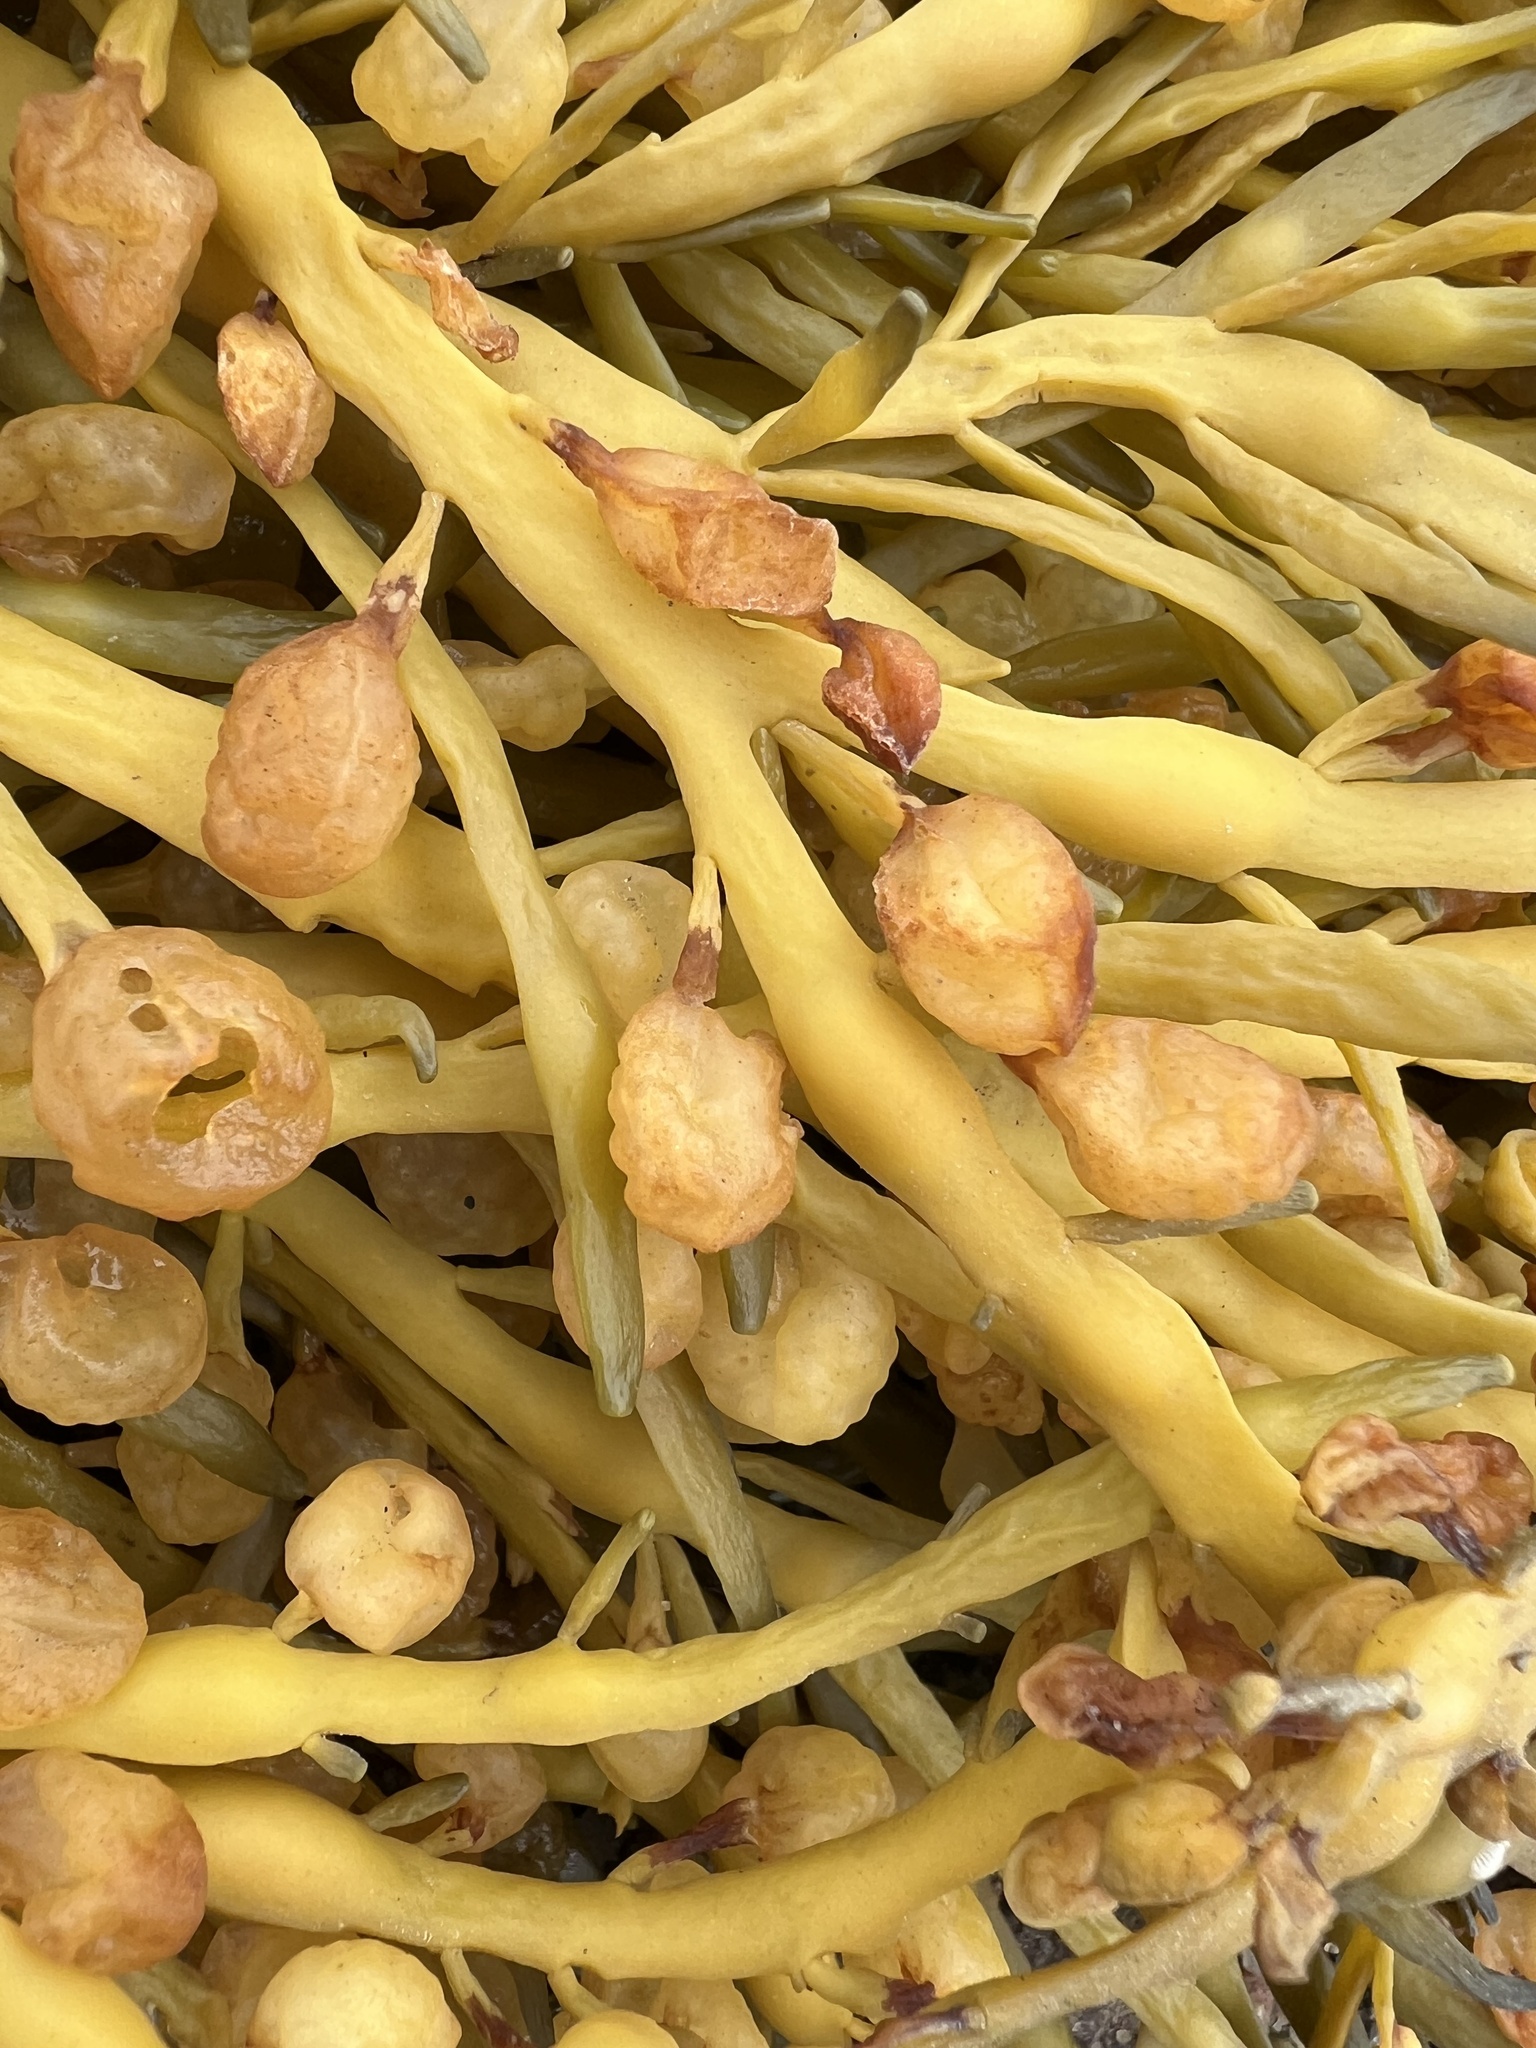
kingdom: Chromista
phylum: Ochrophyta
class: Phaeophyceae
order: Fucales
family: Fucaceae
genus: Ascophyllum
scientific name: Ascophyllum nodosum
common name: Knotted wrack
